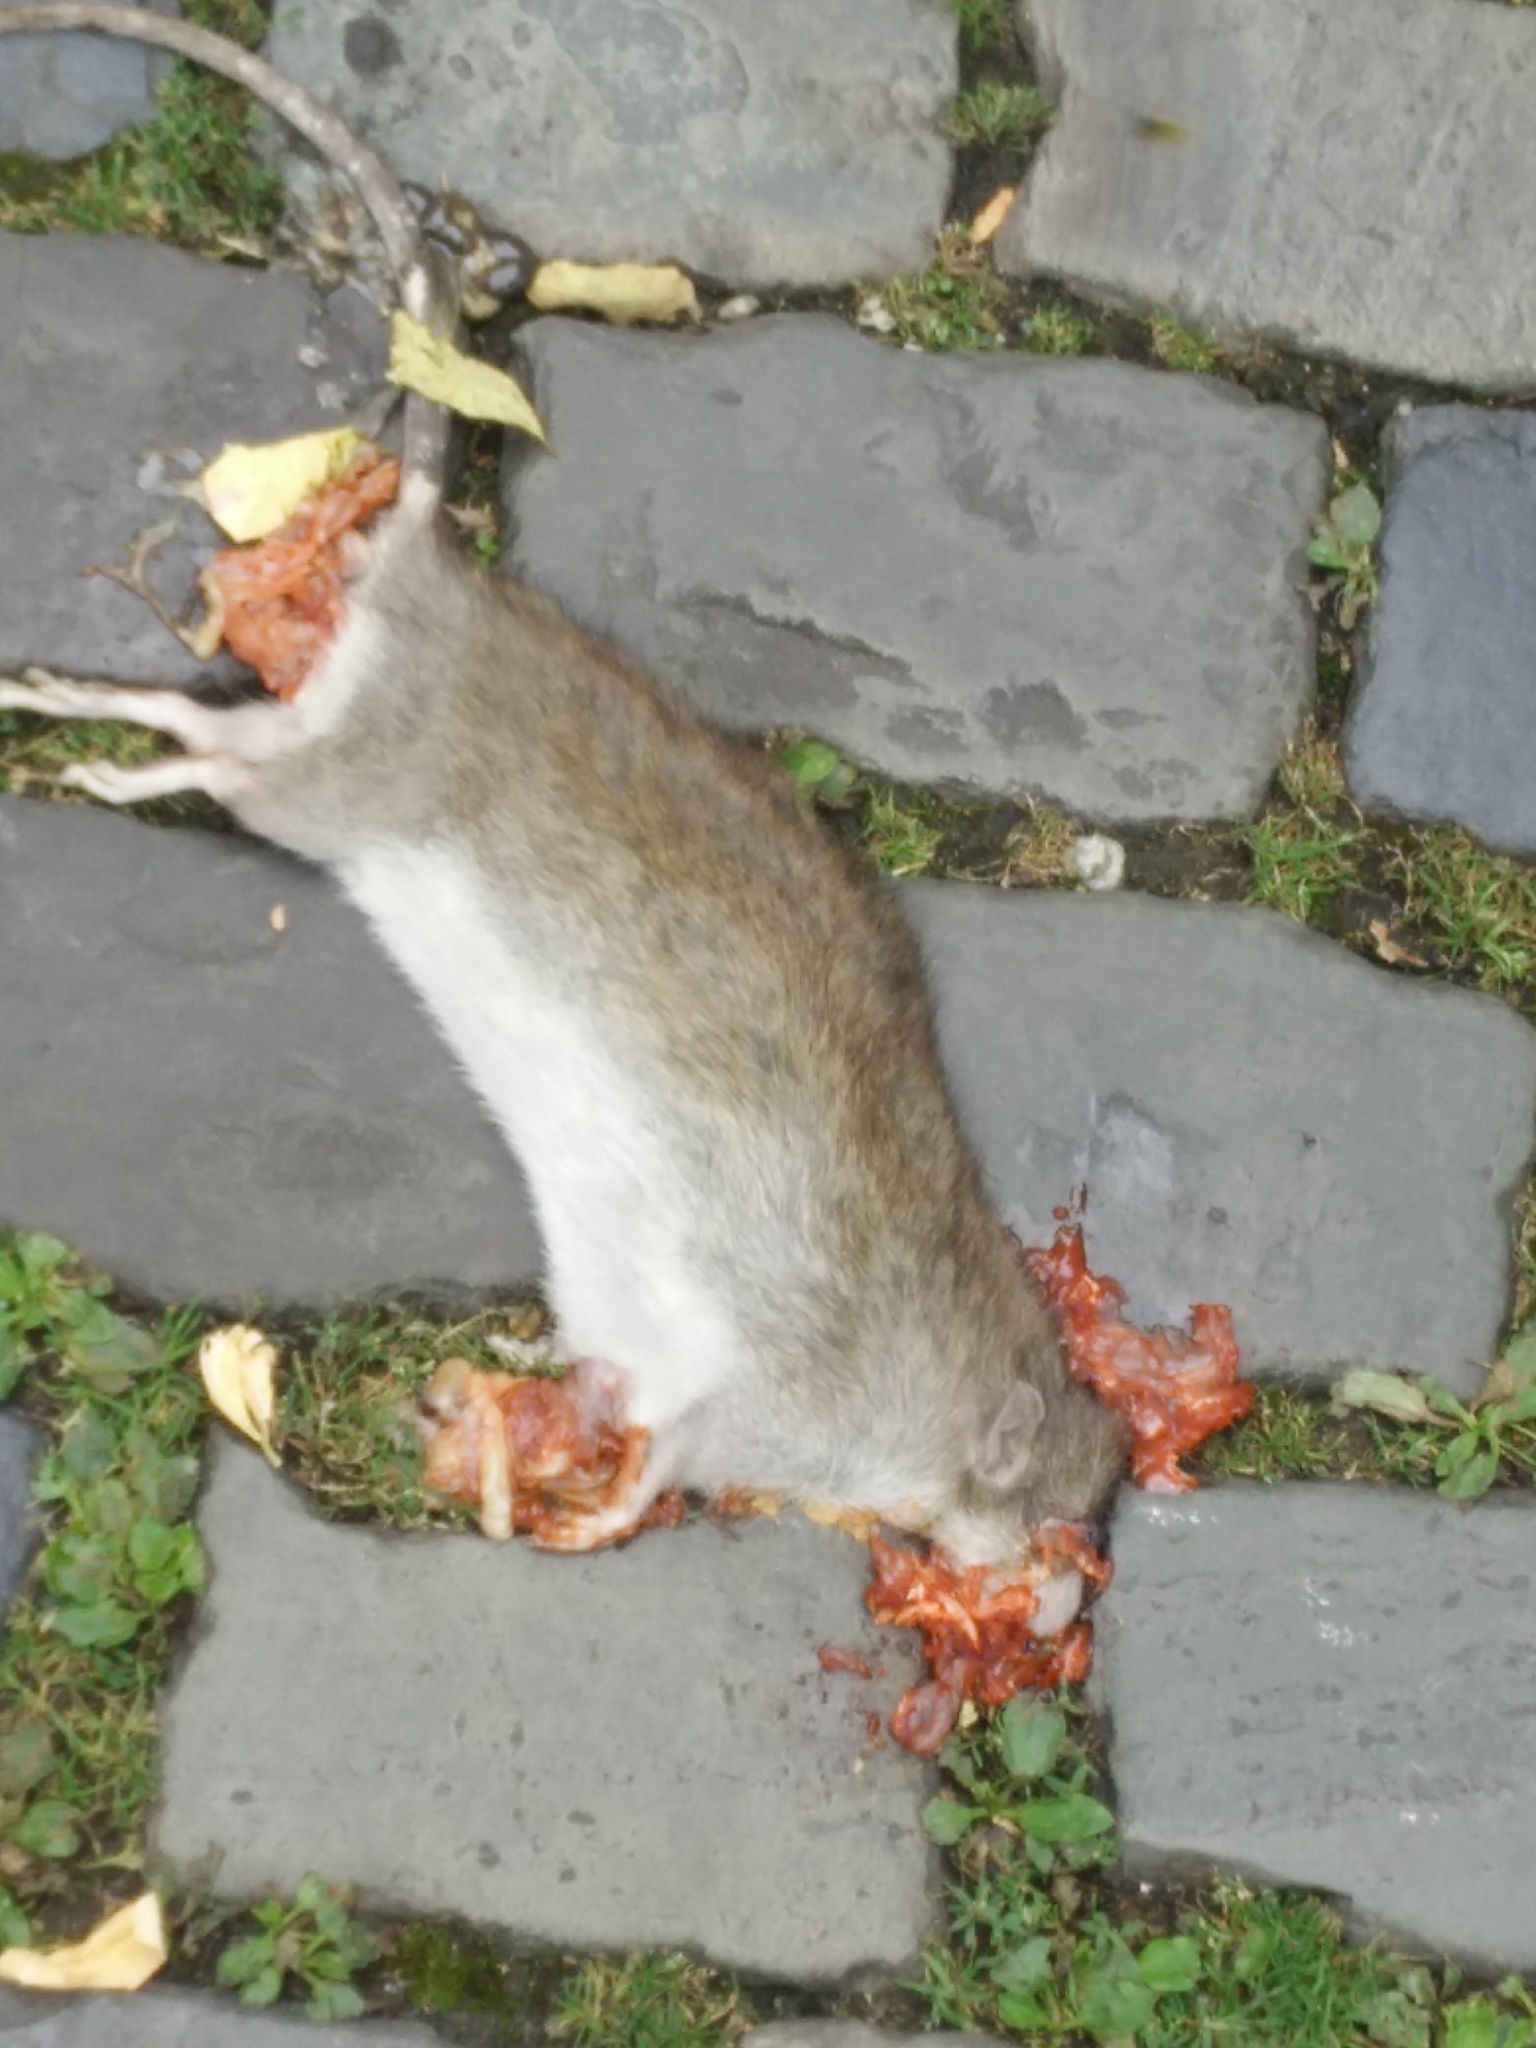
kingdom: Animalia
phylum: Chordata
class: Mammalia
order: Rodentia
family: Muridae
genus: Rattus
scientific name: Rattus norvegicus
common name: Brown rat
